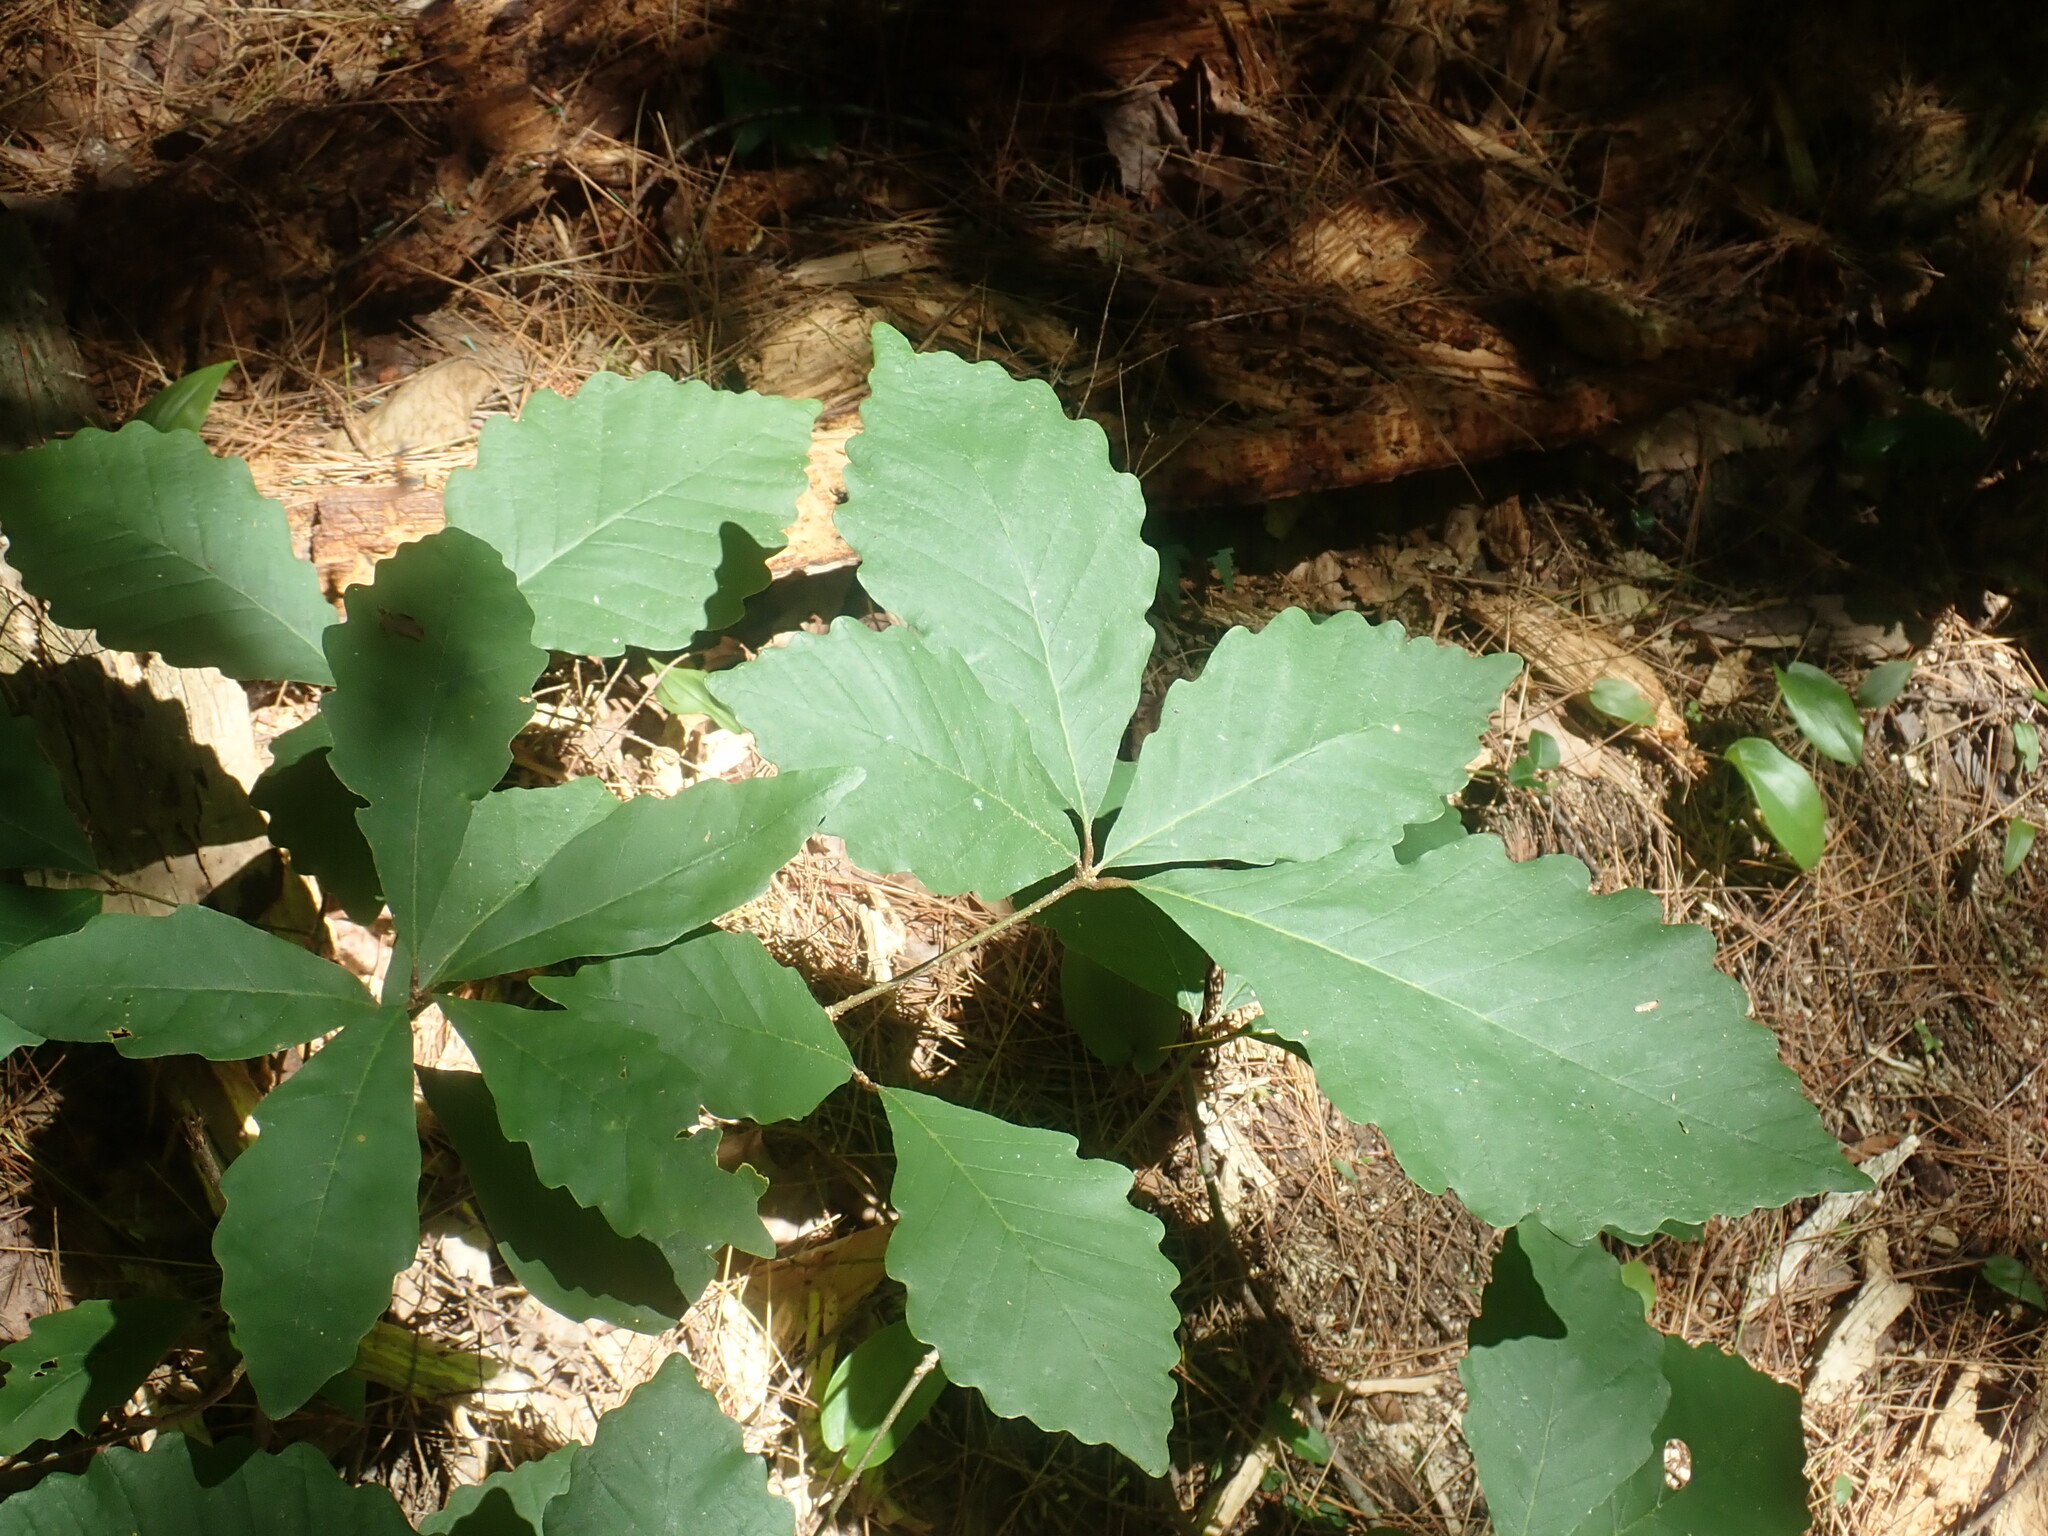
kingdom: Plantae
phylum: Tracheophyta
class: Magnoliopsida
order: Fagales
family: Fagaceae
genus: Quercus
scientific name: Quercus montana
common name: Chestnut oak
